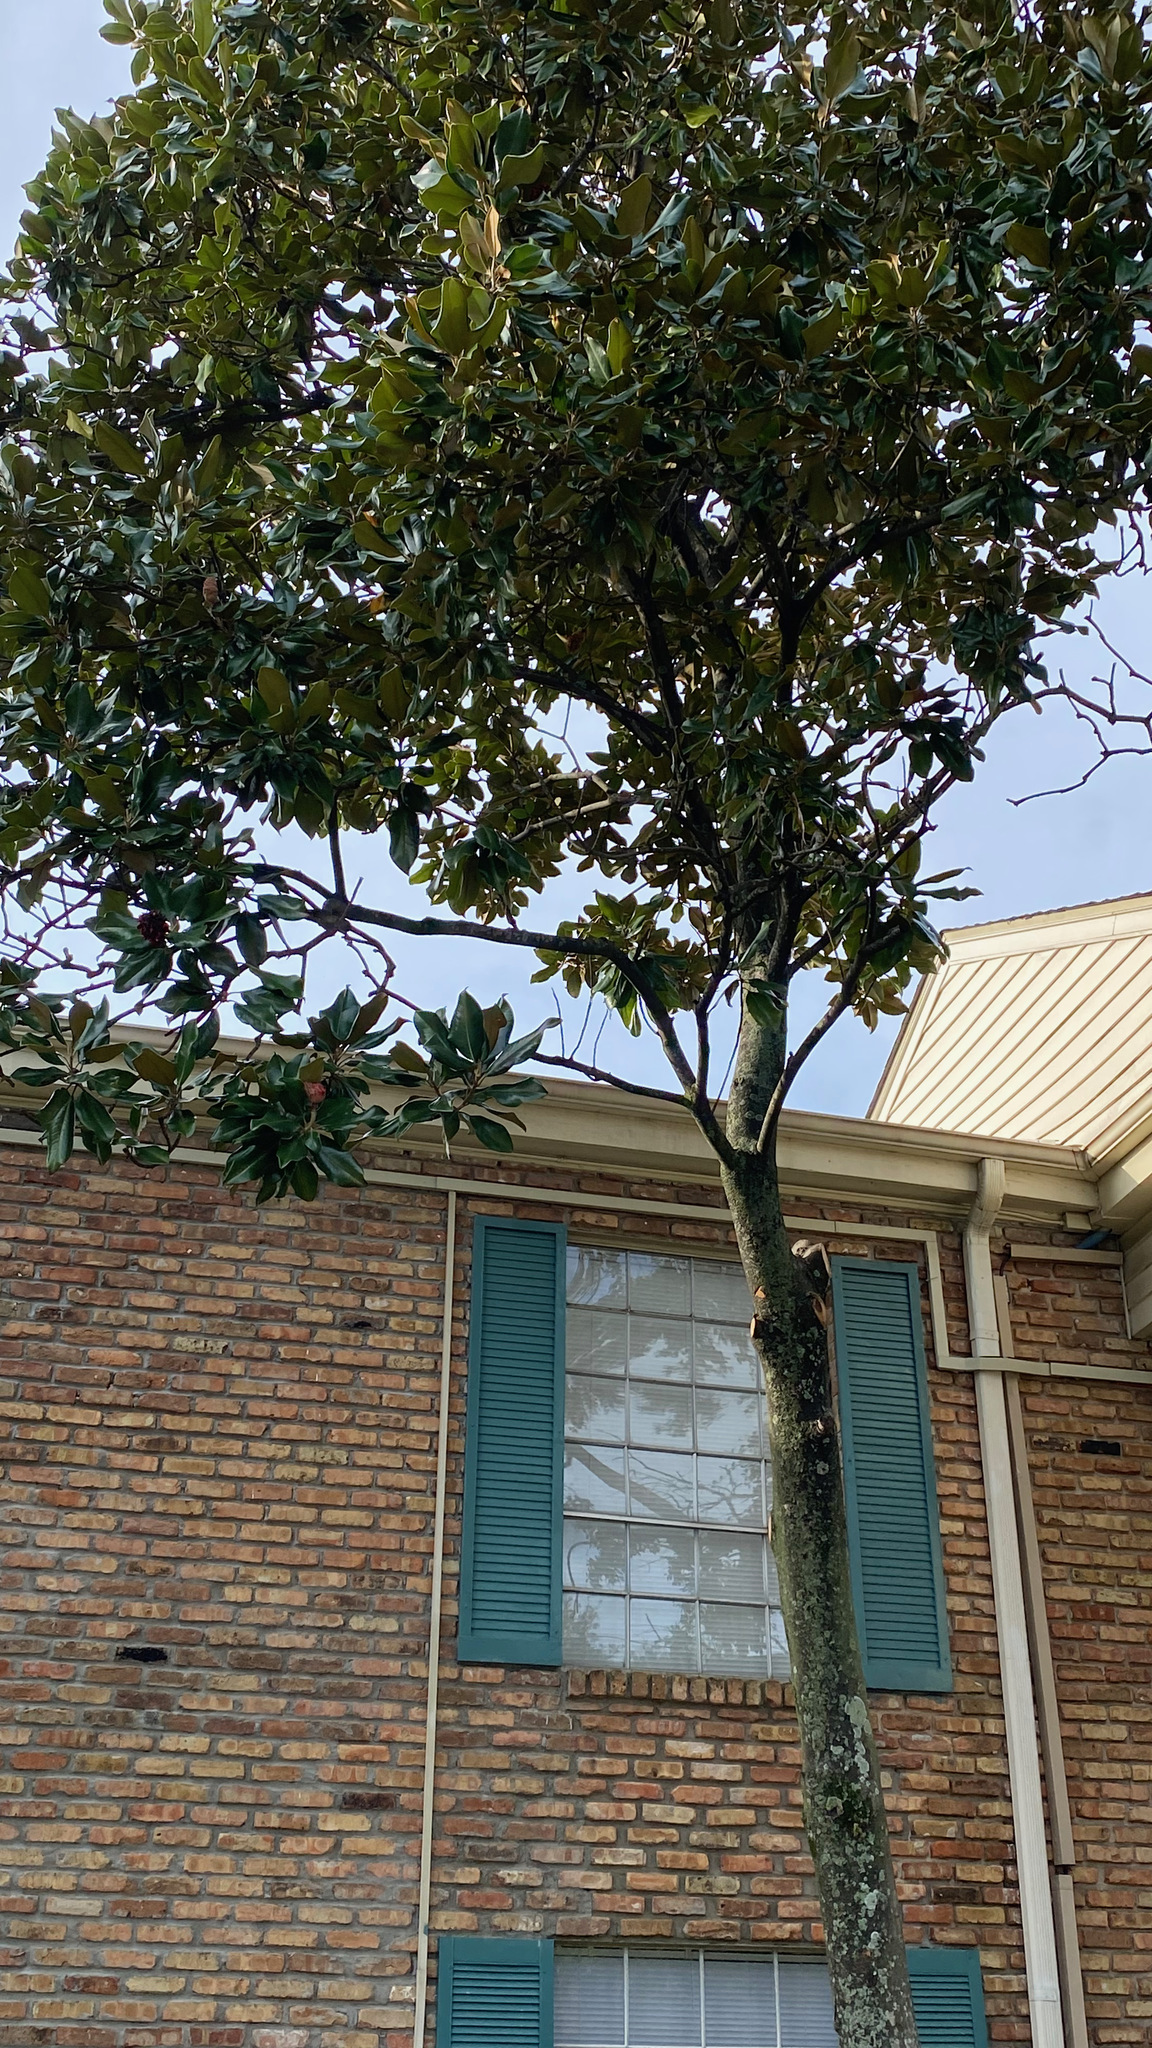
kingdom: Plantae
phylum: Tracheophyta
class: Magnoliopsida
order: Magnoliales
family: Magnoliaceae
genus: Magnolia
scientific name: Magnolia grandiflora
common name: Southern magnolia
